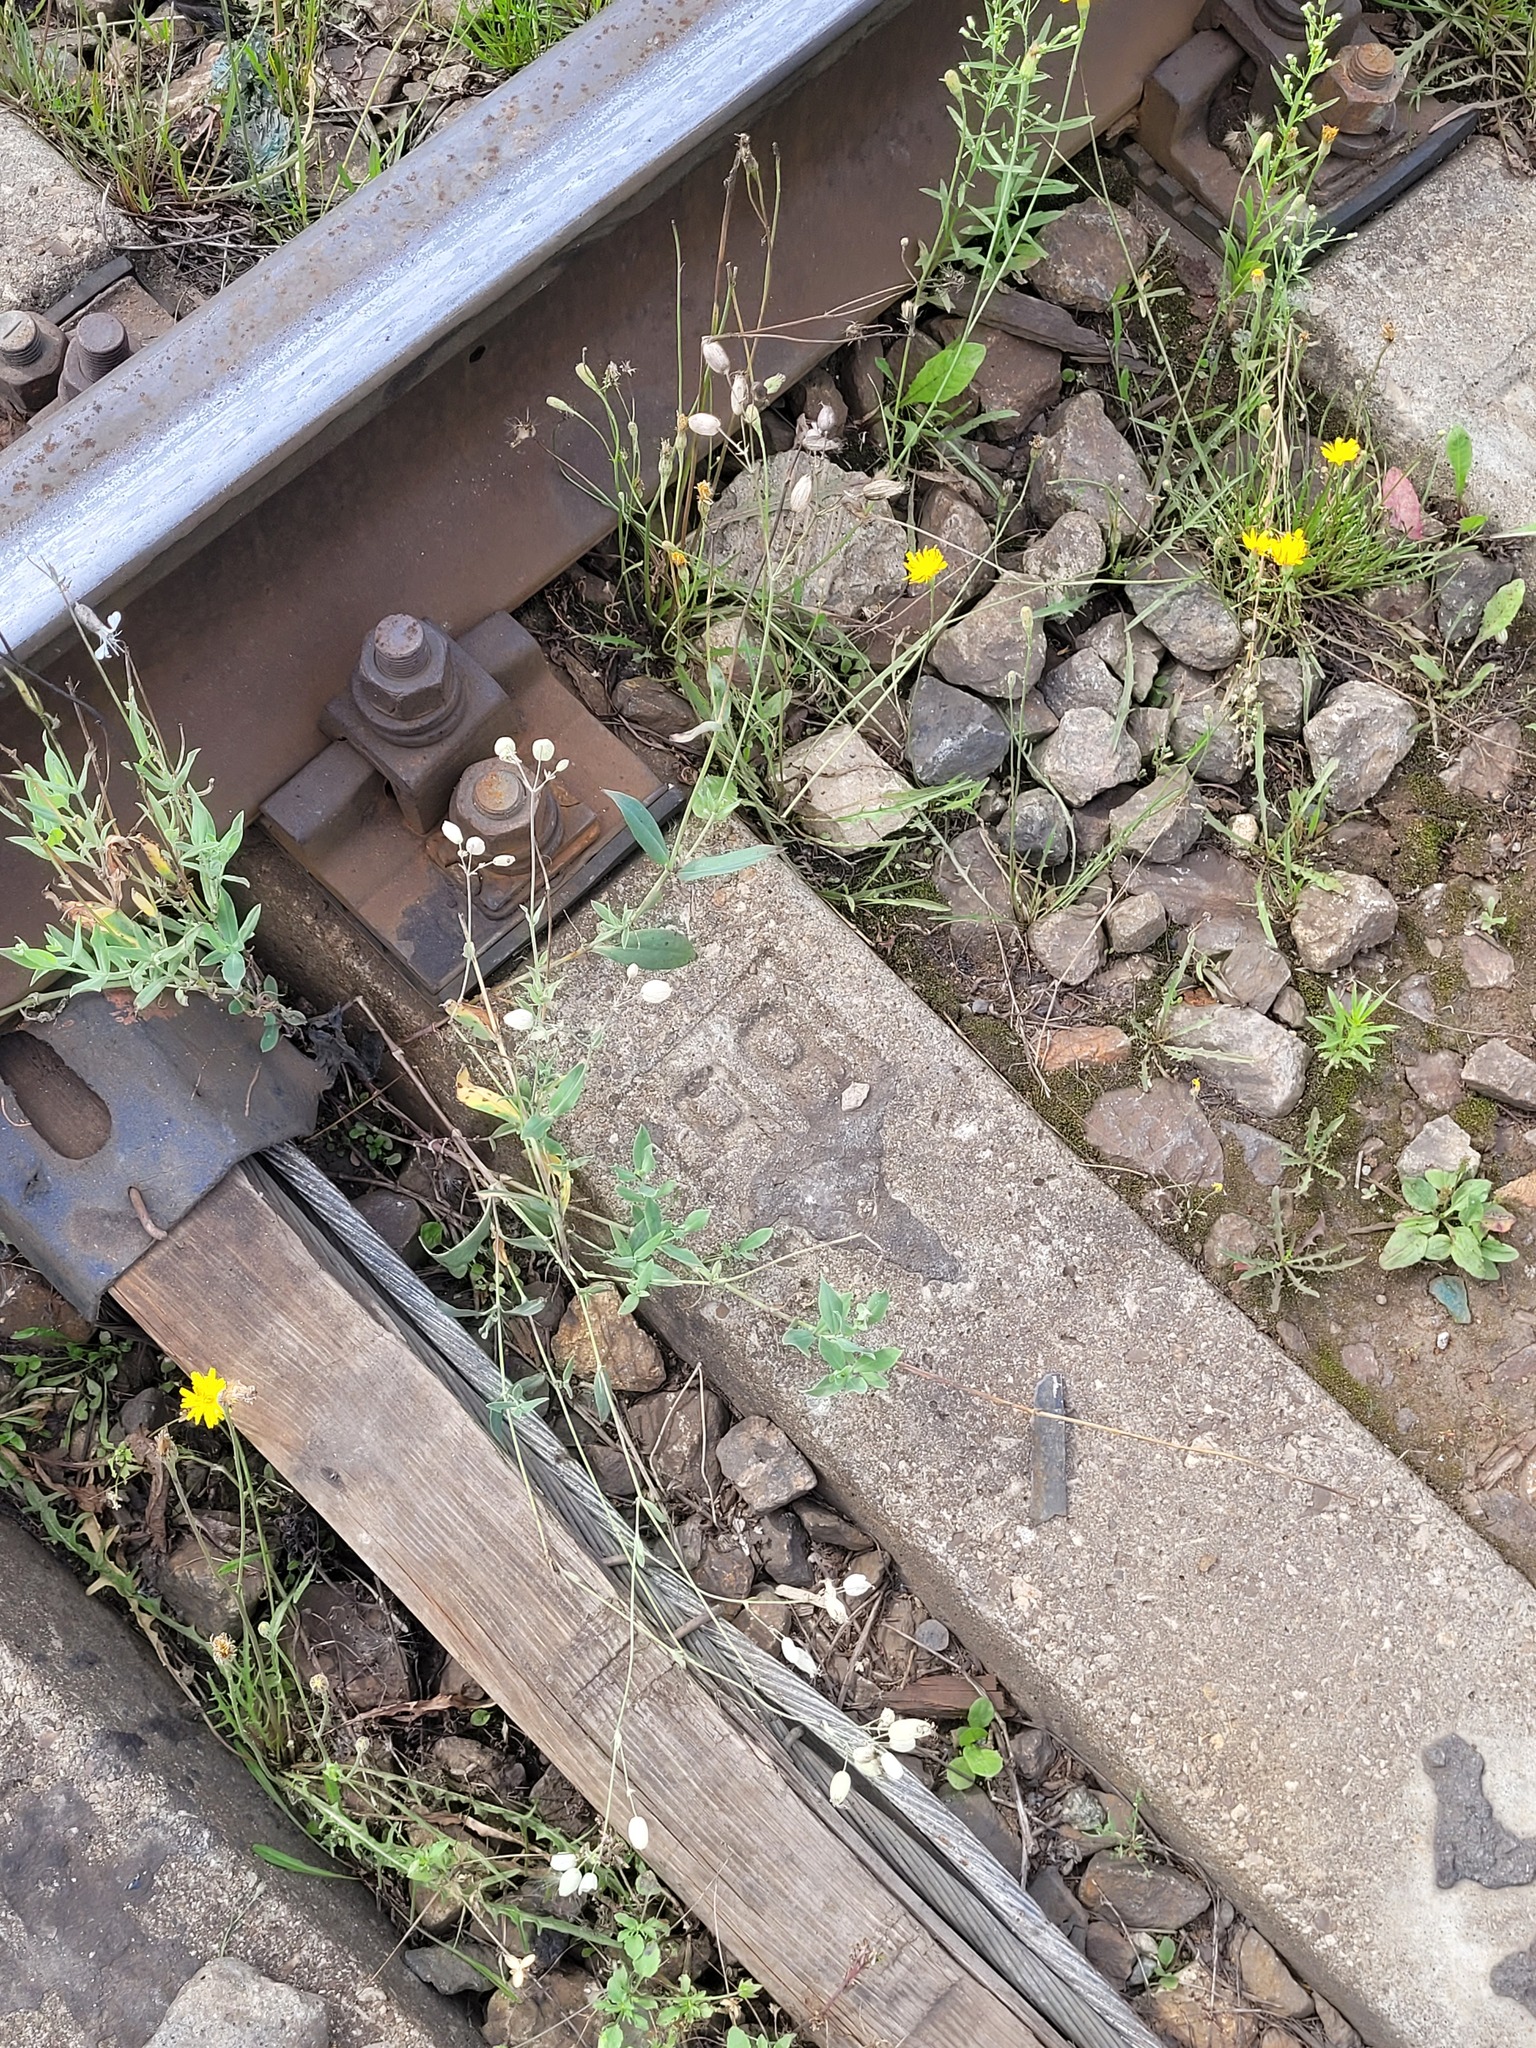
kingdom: Plantae
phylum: Tracheophyta
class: Magnoliopsida
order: Caryophyllales
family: Caryophyllaceae
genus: Silene
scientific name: Silene vulgaris
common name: Bladder campion
